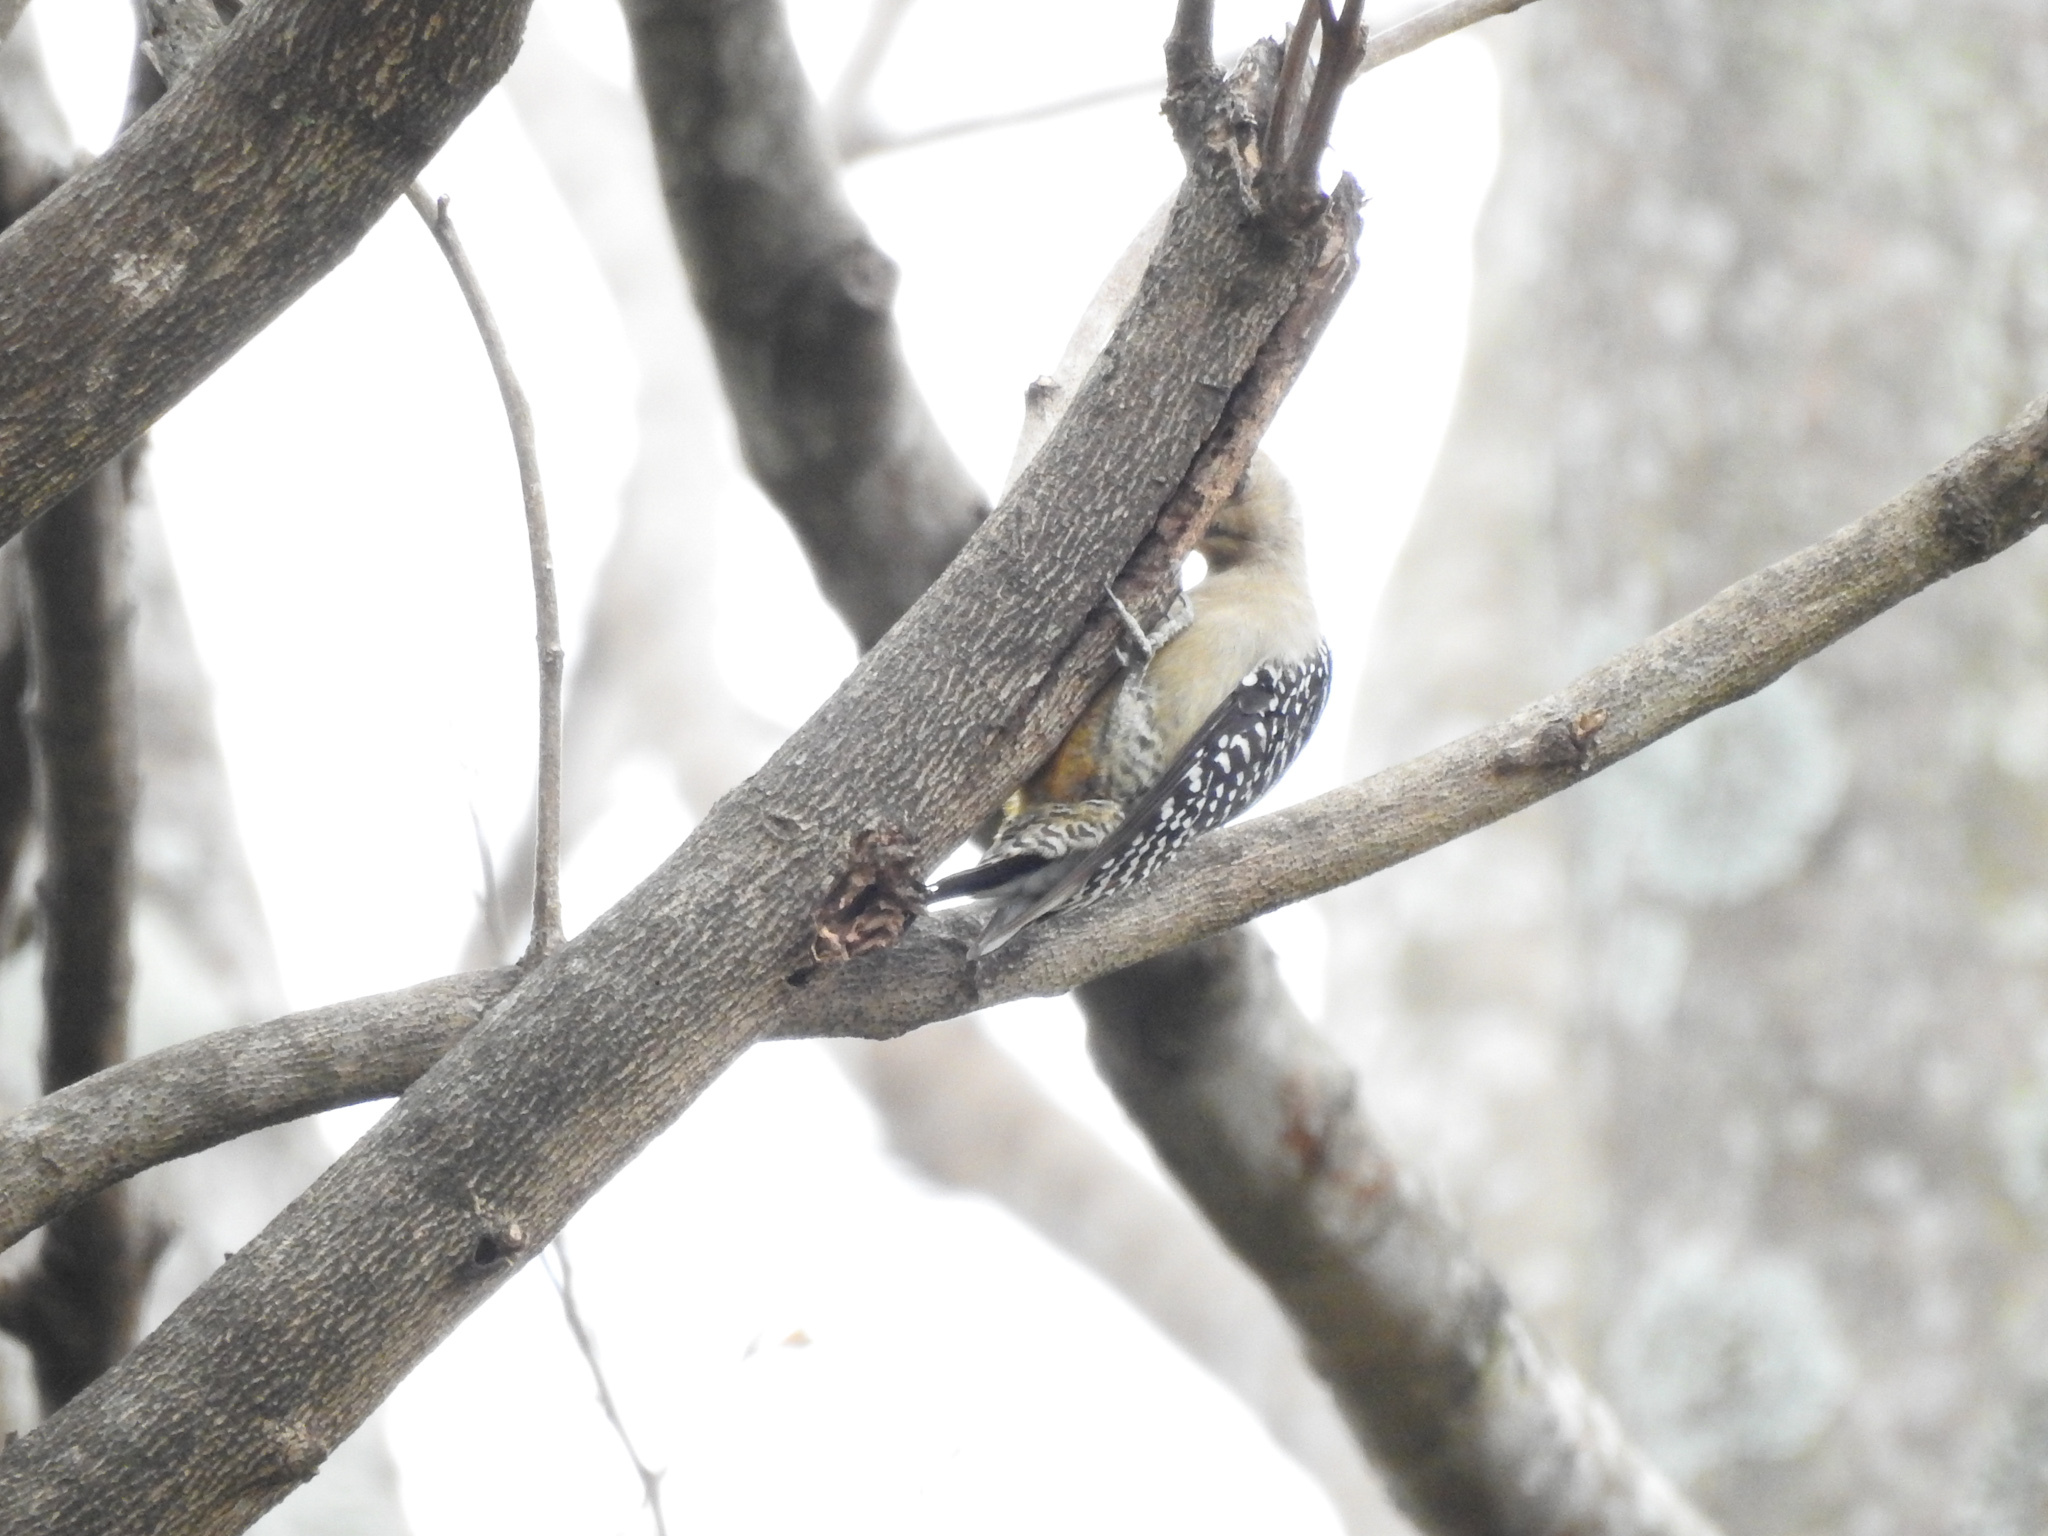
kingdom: Animalia
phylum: Chordata
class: Aves
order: Piciformes
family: Picidae
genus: Melanerpes
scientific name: Melanerpes hoffmannii
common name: Hoffmann's woodpecker
